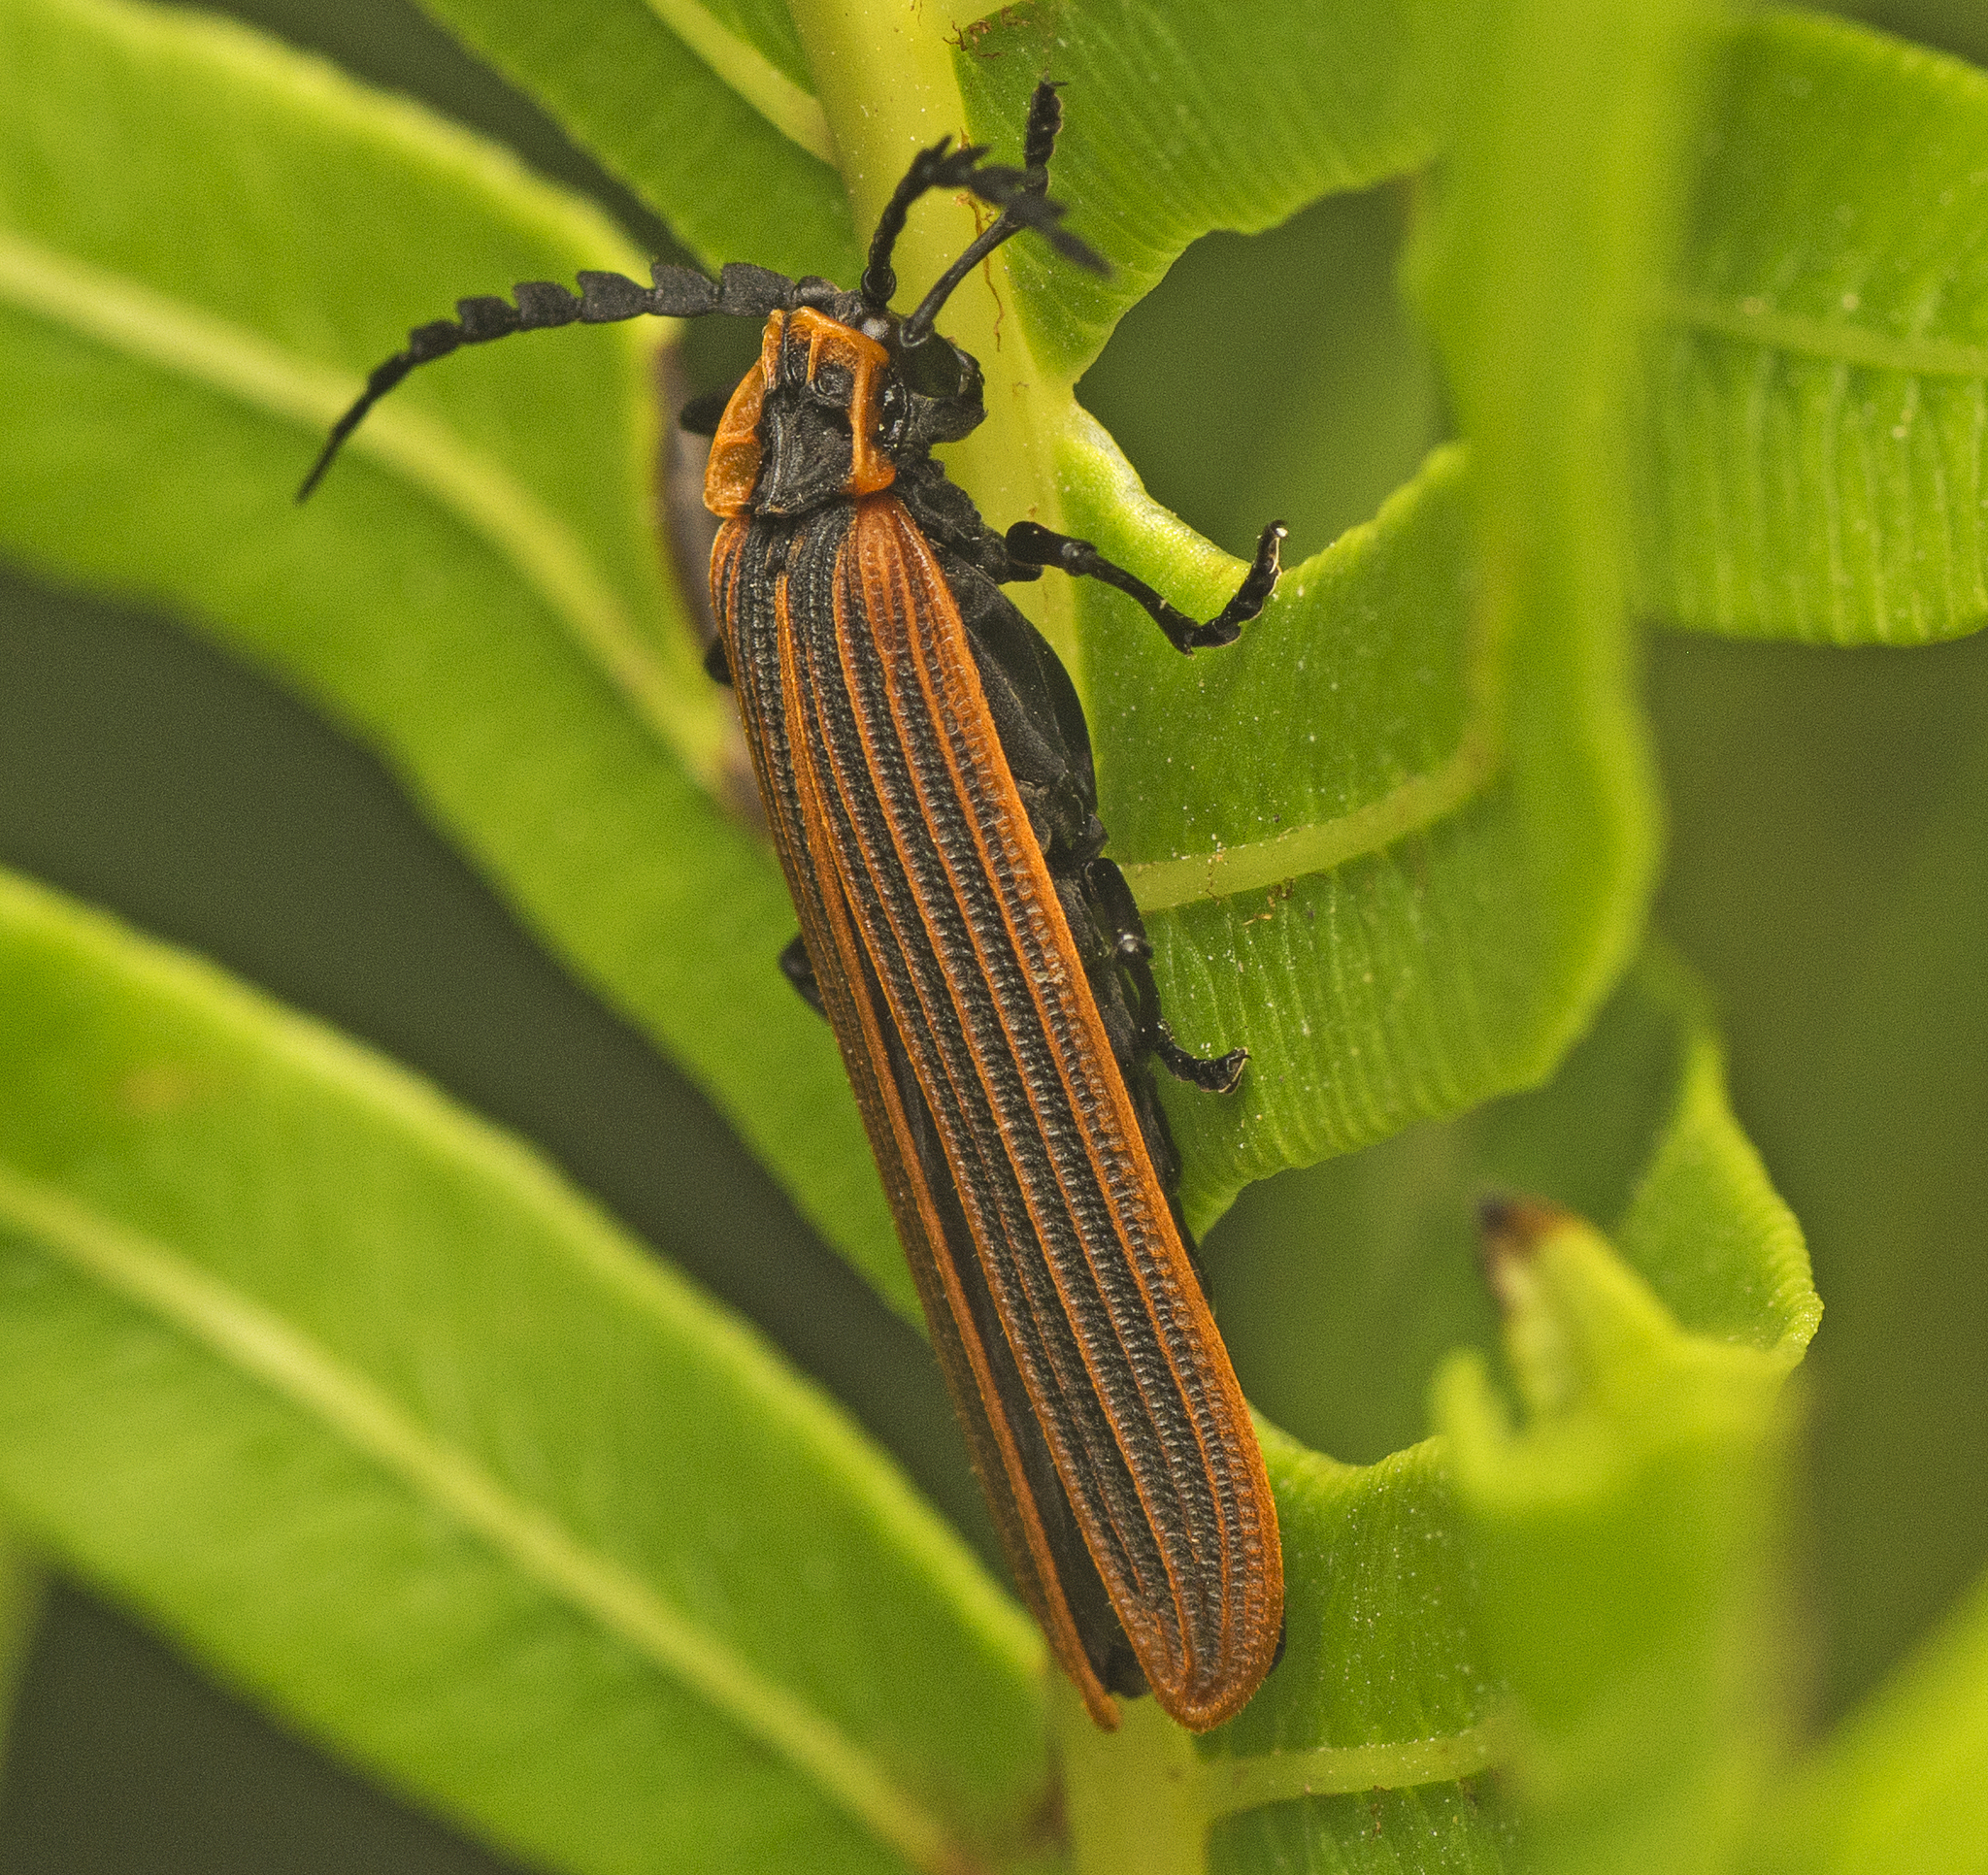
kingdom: Animalia
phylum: Arthropoda
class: Insecta
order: Coleoptera
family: Lycidae
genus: Porrostoma
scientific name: Porrostoma
